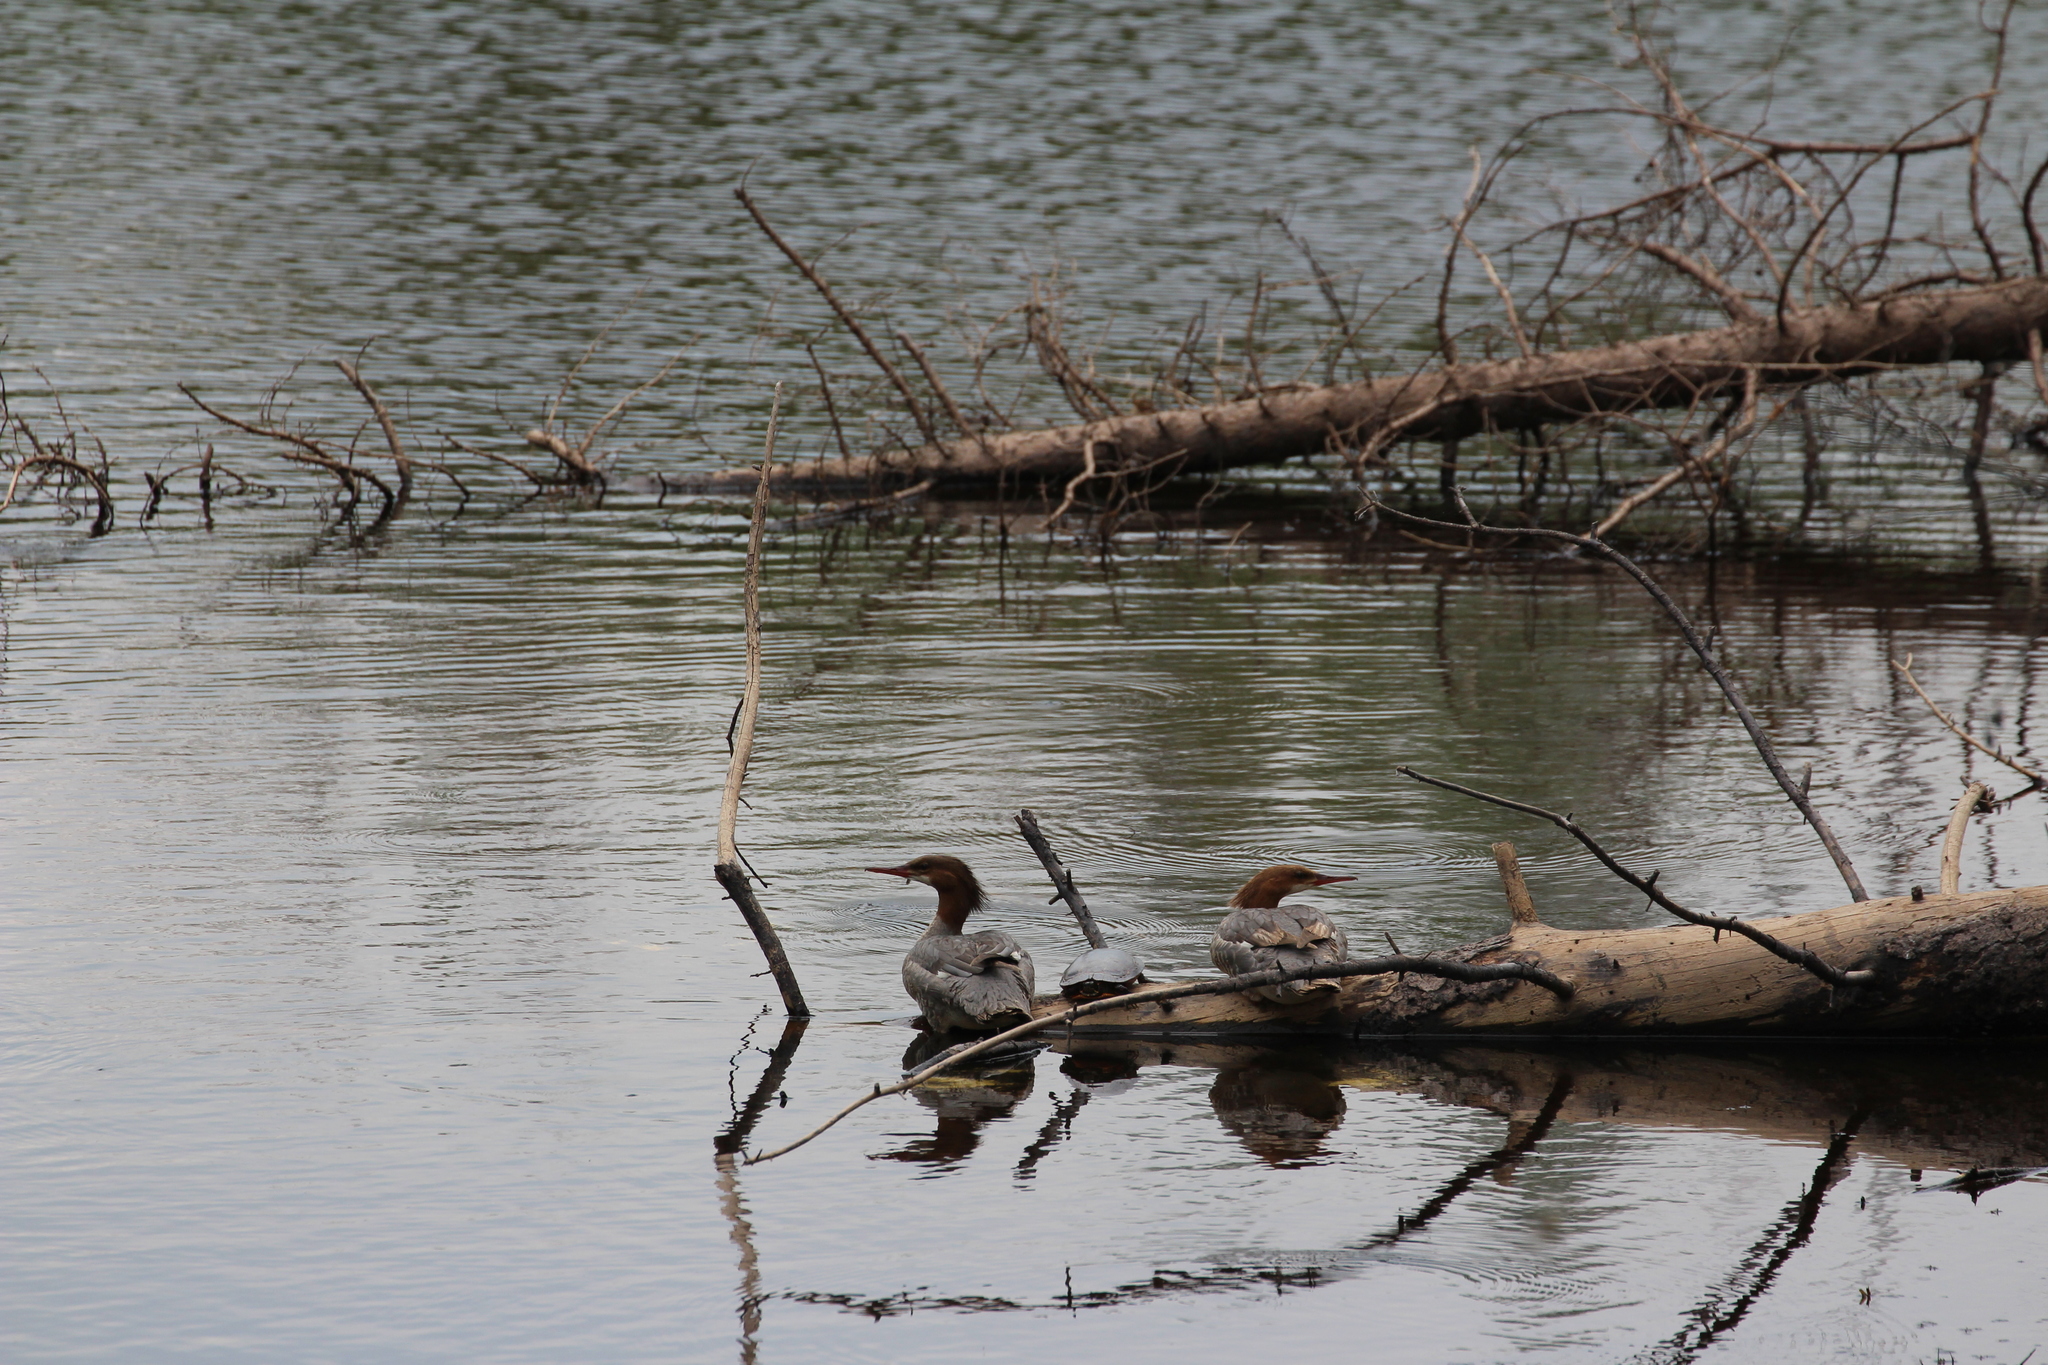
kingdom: Animalia
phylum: Chordata
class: Aves
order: Anseriformes
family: Anatidae
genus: Mergus
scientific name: Mergus merganser
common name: Common merganser
